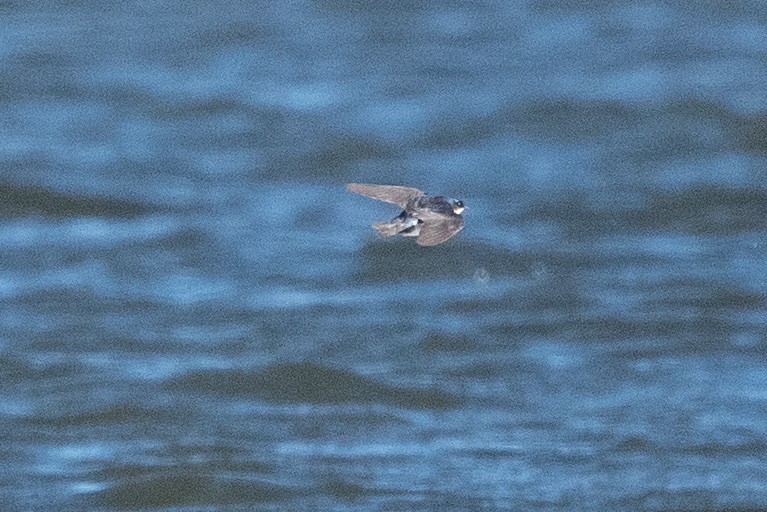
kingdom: Animalia
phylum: Chordata
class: Aves
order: Passeriformes
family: Hirundinidae
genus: Tachycineta
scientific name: Tachycineta bicolor
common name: Tree swallow
